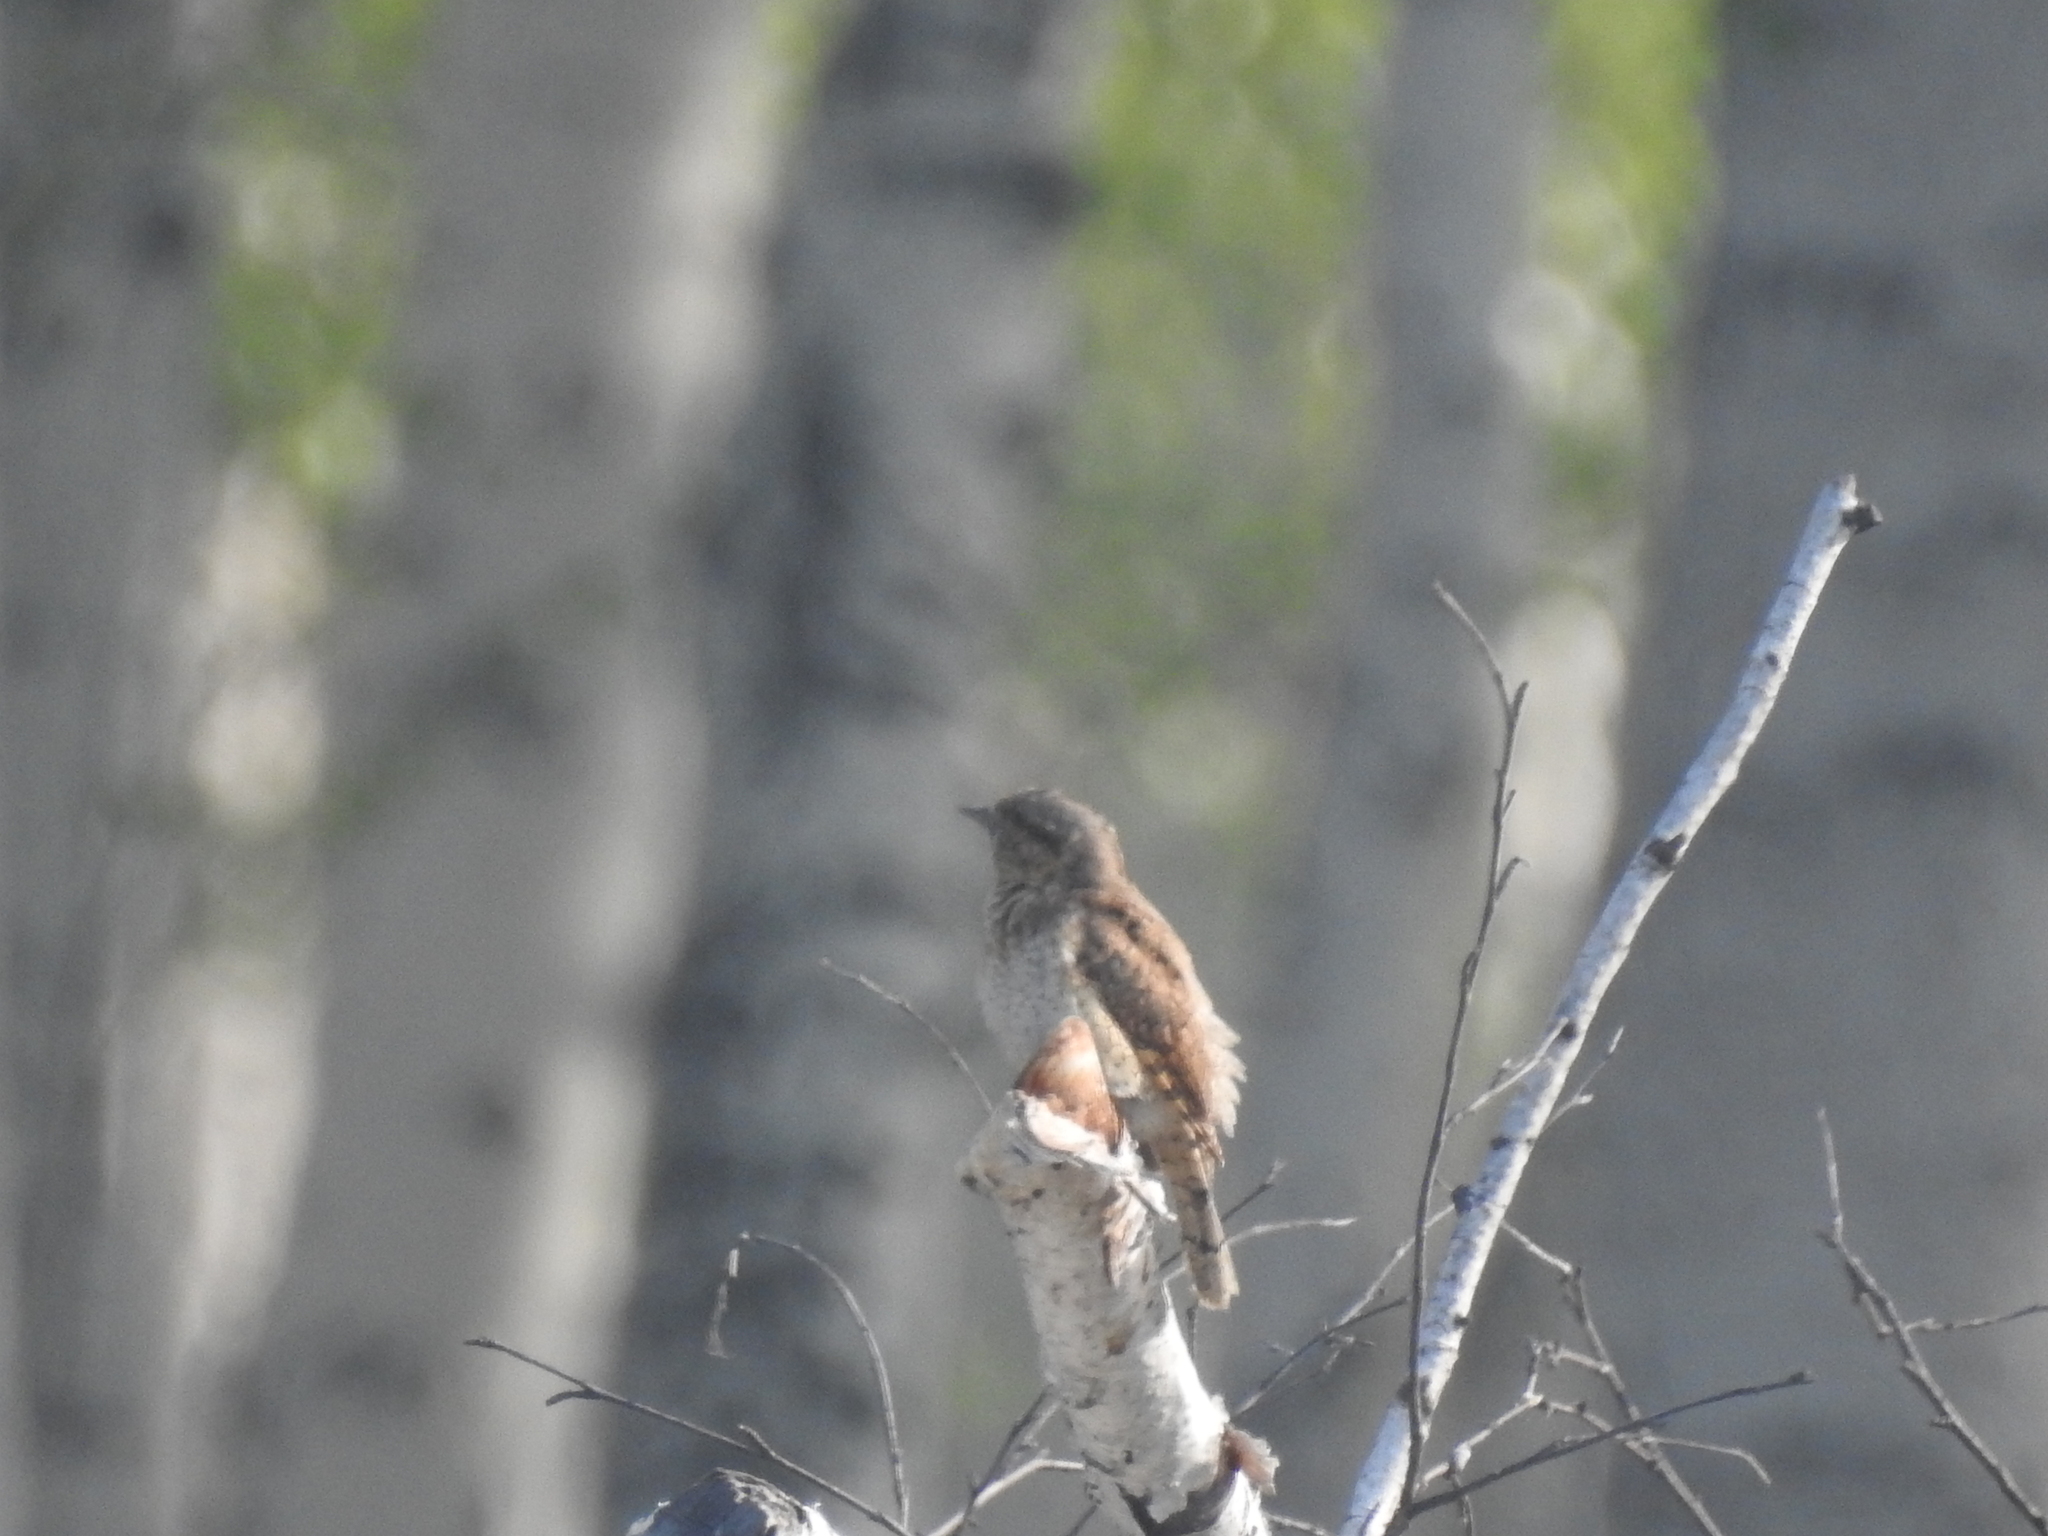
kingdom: Animalia
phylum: Chordata
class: Aves
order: Piciformes
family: Picidae
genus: Jynx
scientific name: Jynx torquilla
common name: Eurasian wryneck
